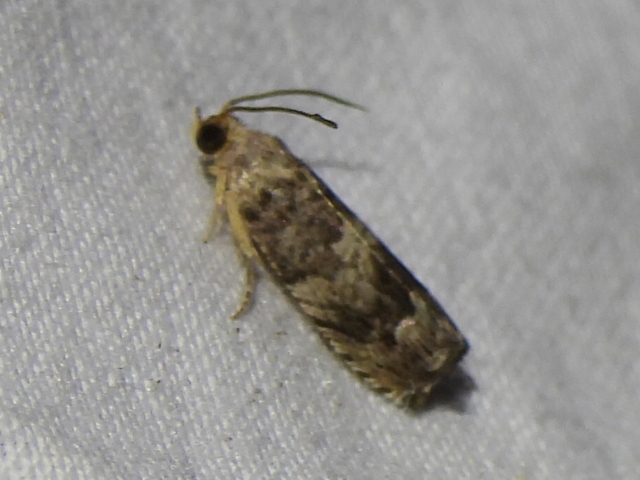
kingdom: Animalia
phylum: Arthropoda
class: Insecta
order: Lepidoptera
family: Tortricidae
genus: Cydia
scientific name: Cydia membrosa
